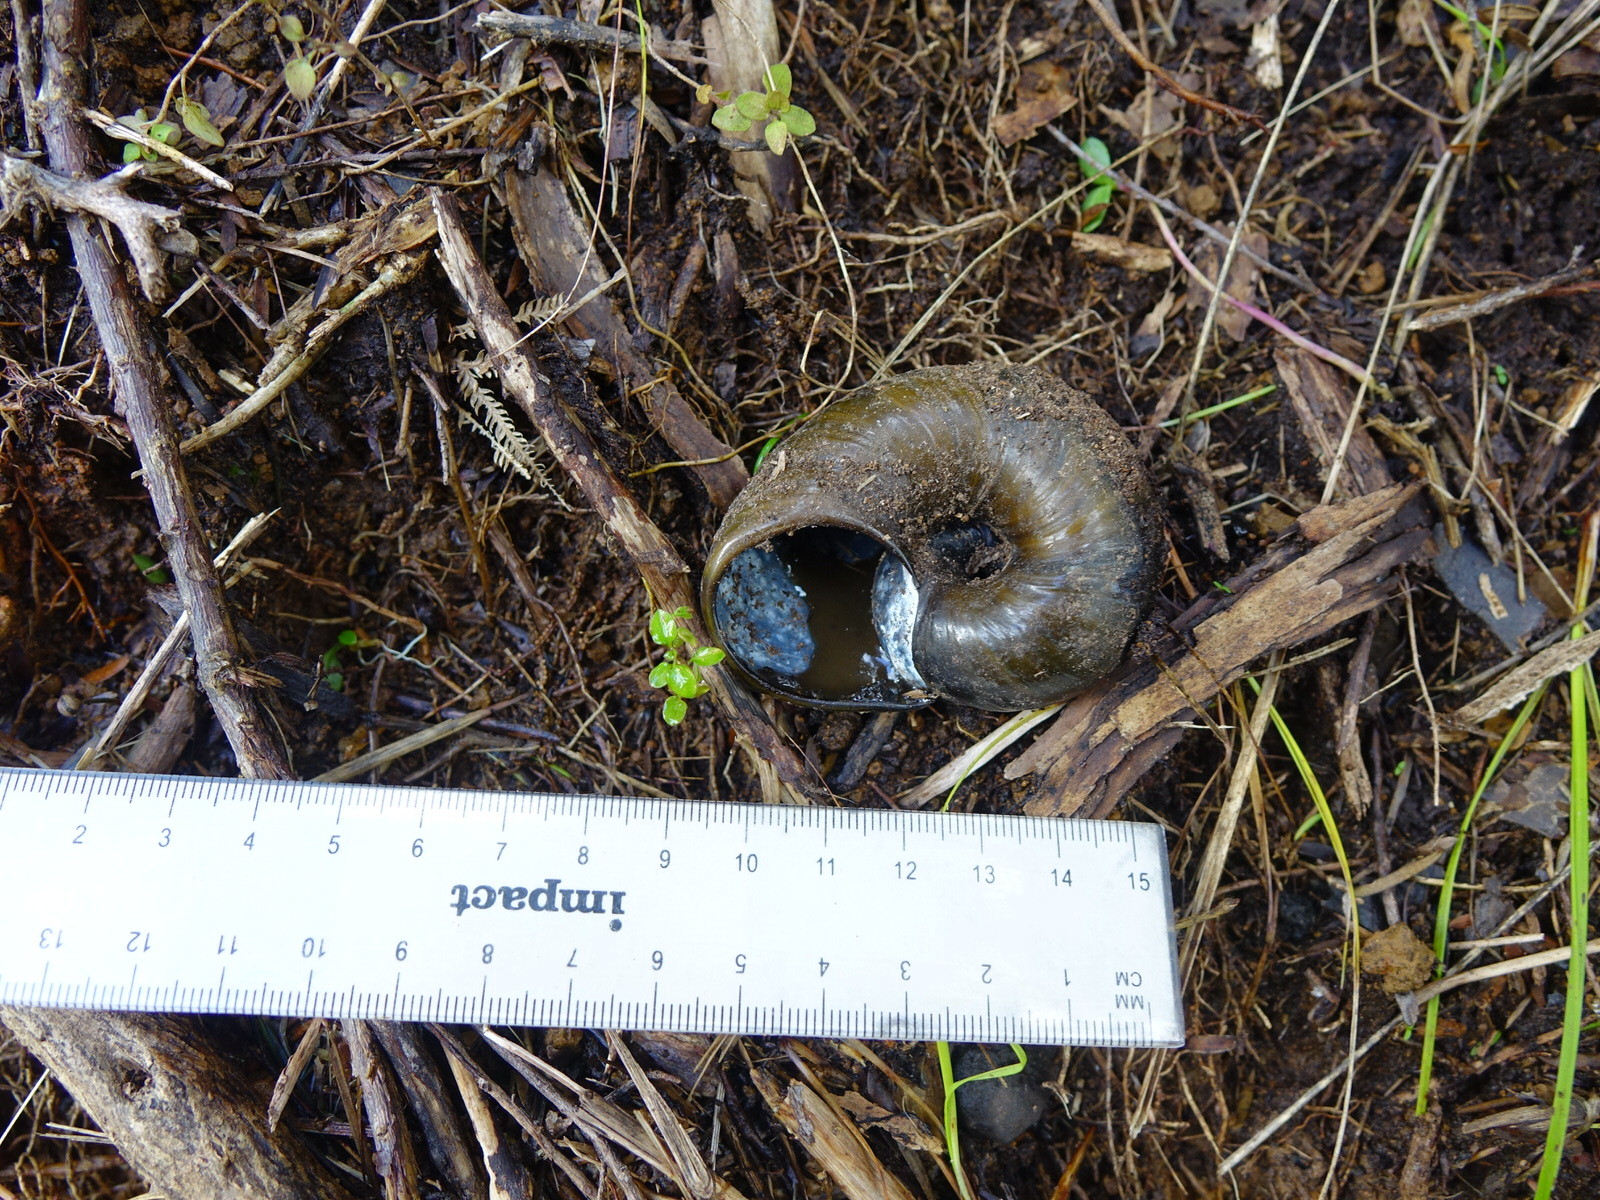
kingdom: Animalia
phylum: Mollusca
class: Gastropoda
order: Stylommatophora
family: Rhytididae
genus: Paryphanta
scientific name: Paryphanta busbyi
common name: Kauri snail
